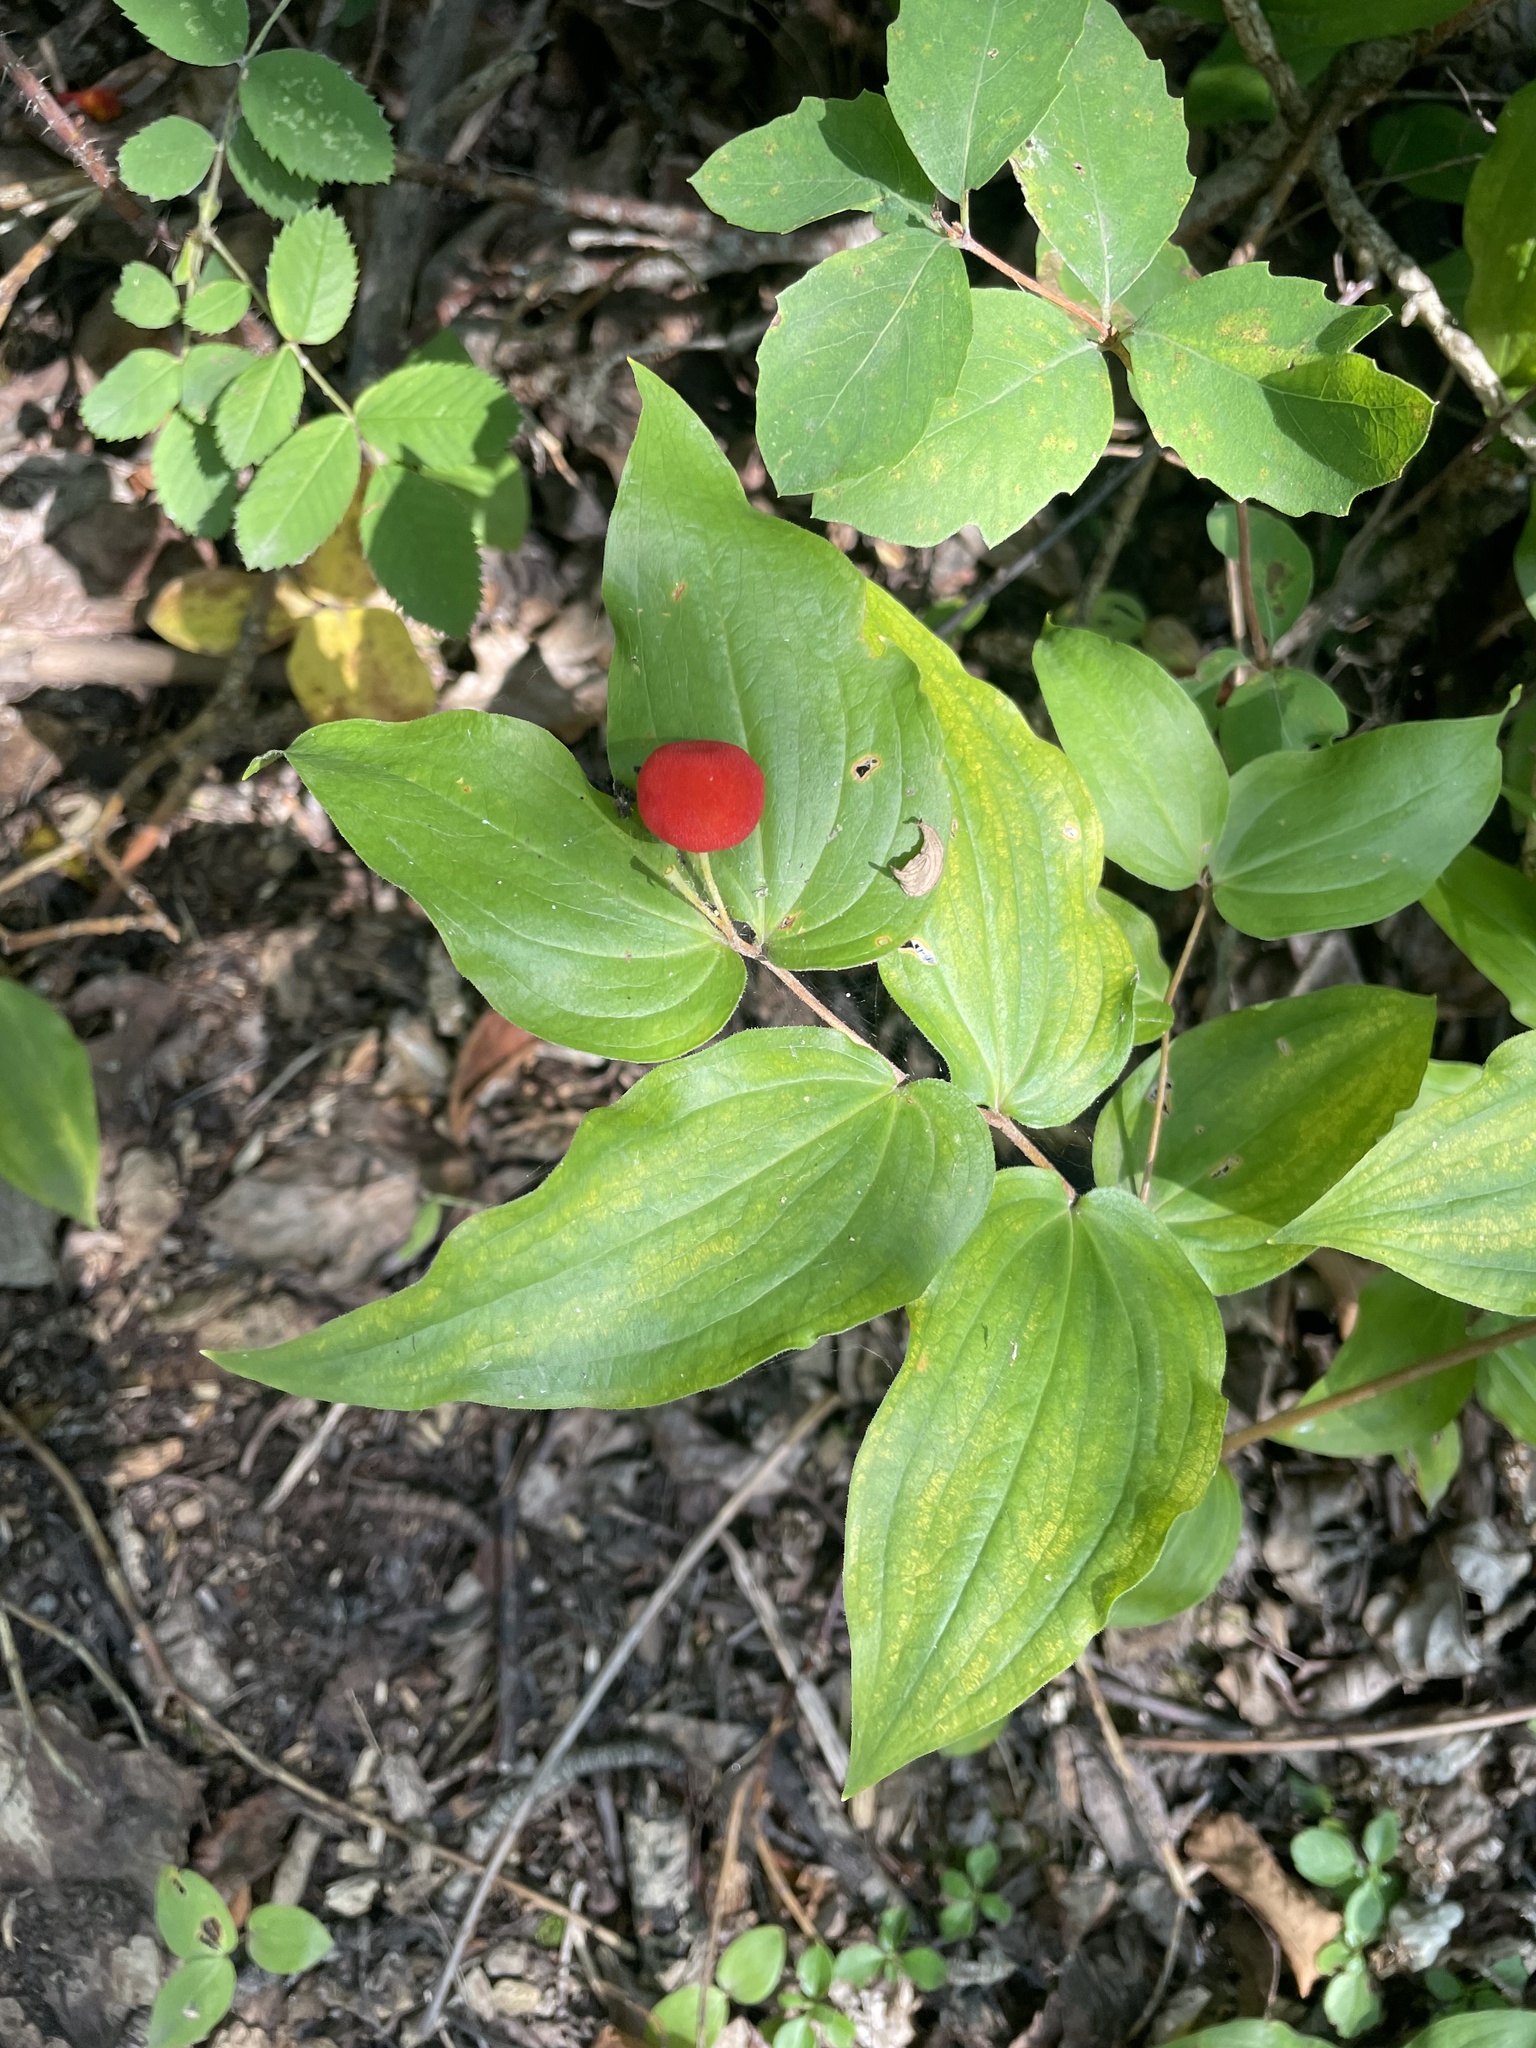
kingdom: Plantae
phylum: Tracheophyta
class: Liliopsida
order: Liliales
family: Liliaceae
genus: Prosartes
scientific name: Prosartes trachycarpa
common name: Rough-fruit fairy-bells
